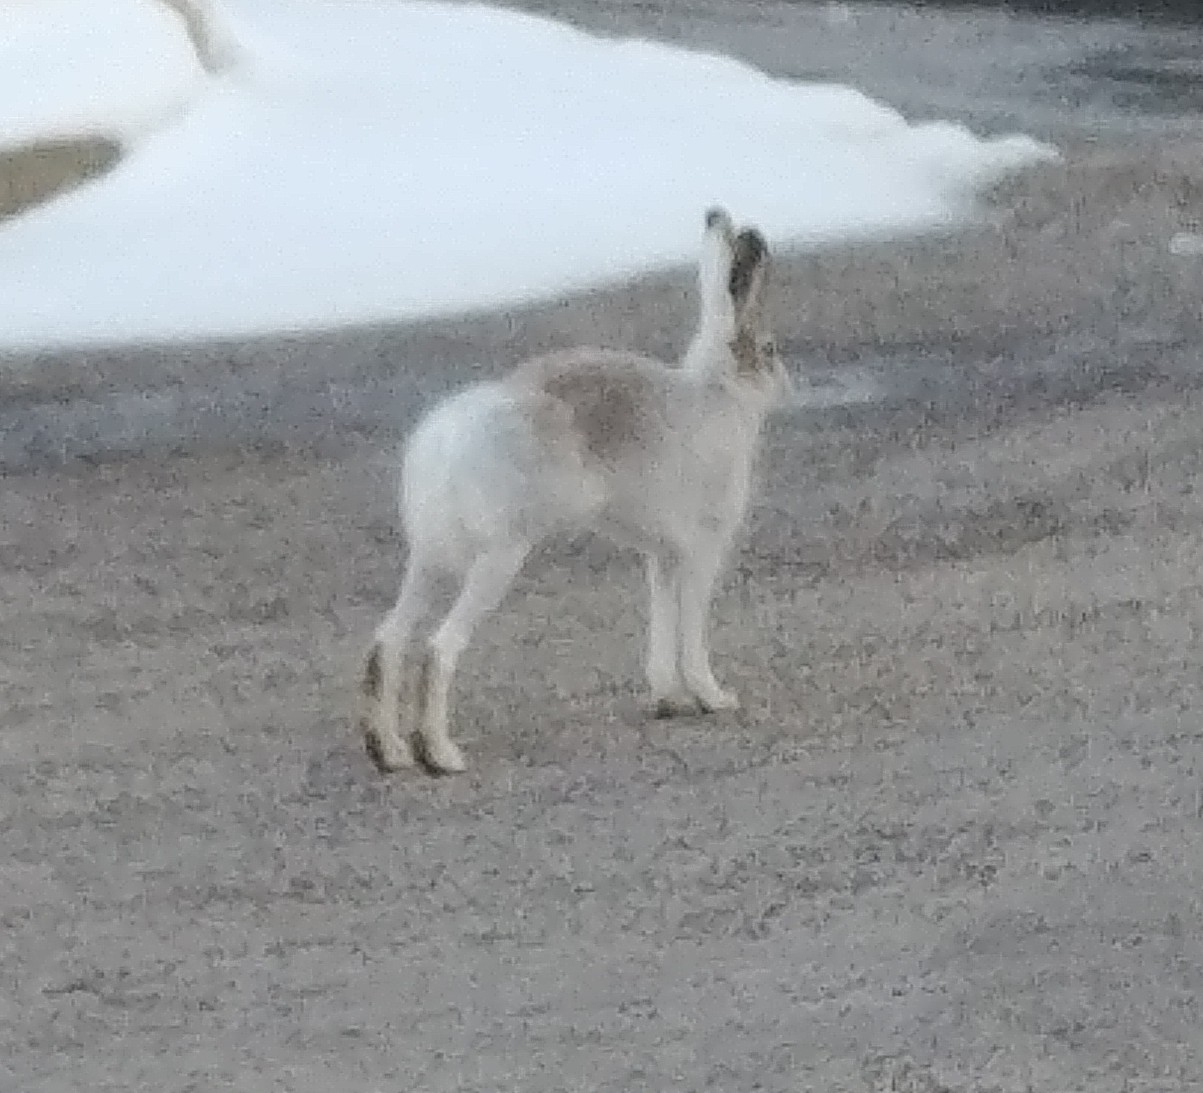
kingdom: Animalia
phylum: Chordata
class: Mammalia
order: Lagomorpha
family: Leporidae
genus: Lepus
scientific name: Lepus townsendii
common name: White-tailed jackrabbit
